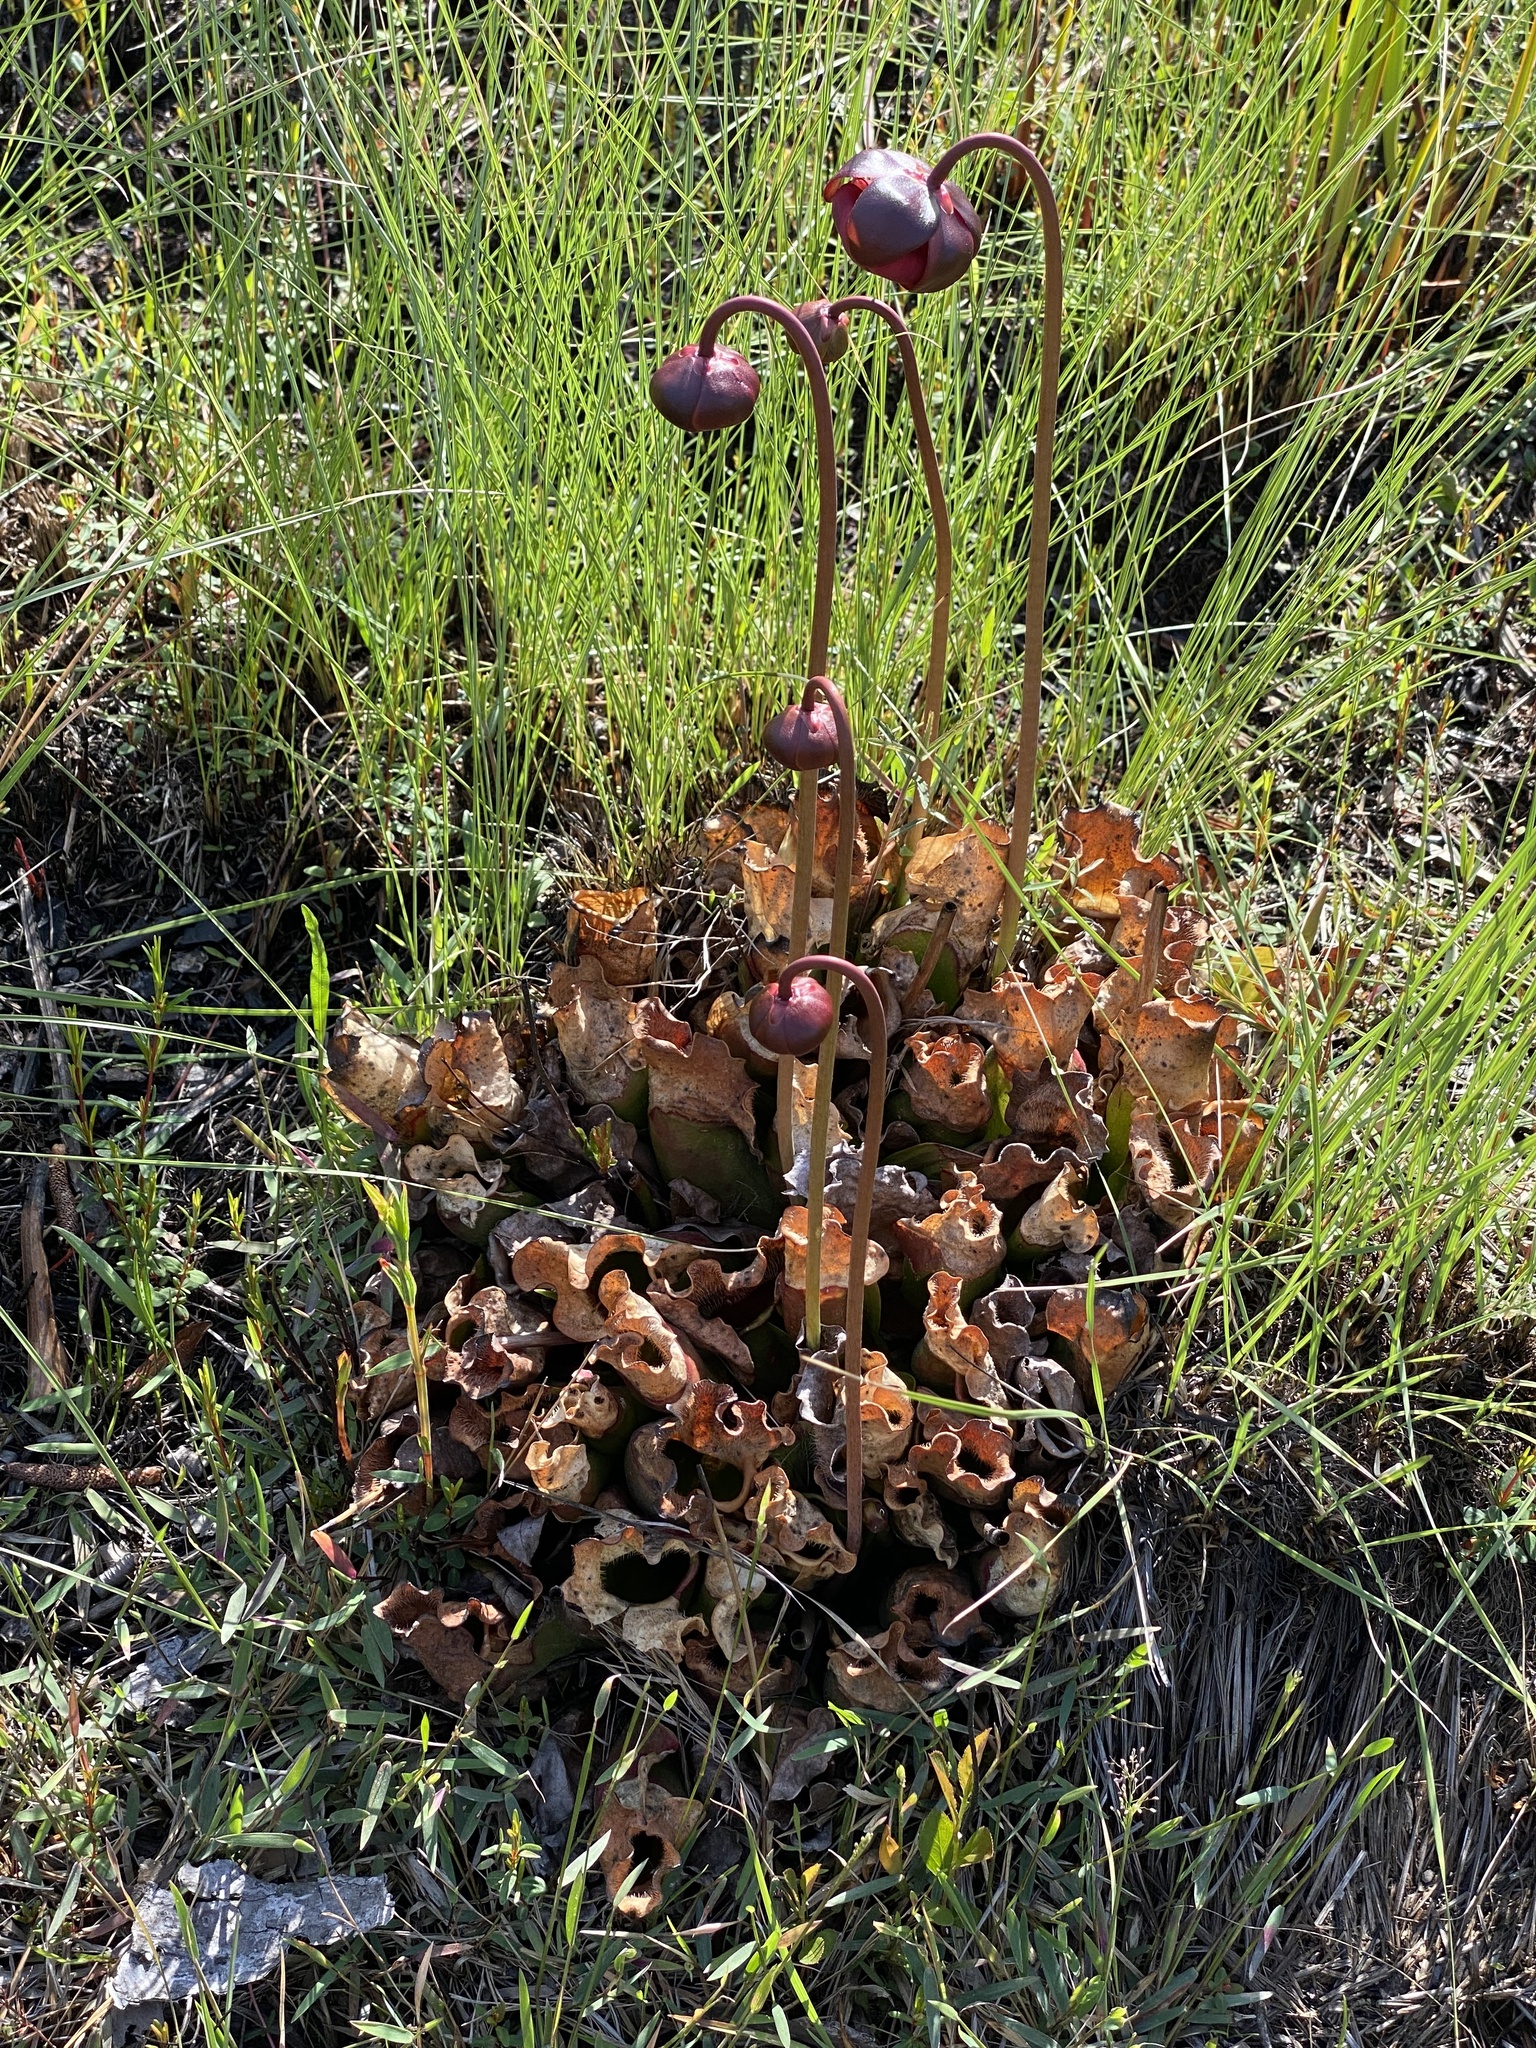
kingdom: Plantae
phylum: Tracheophyta
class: Magnoliopsida
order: Ericales
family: Sarraceniaceae
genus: Sarracenia
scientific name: Sarracenia purpurea
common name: Pitcherplant
